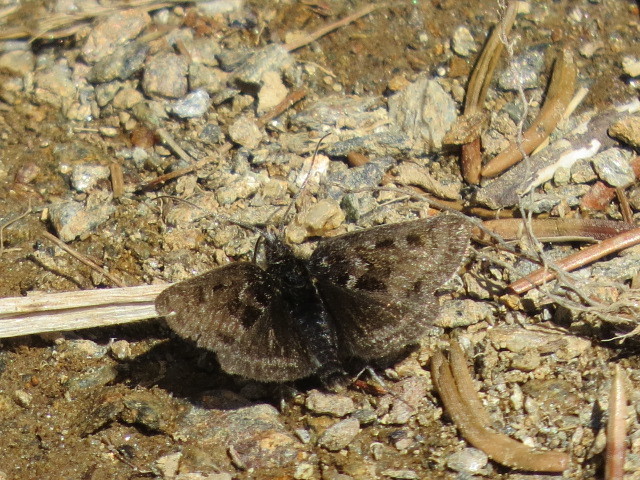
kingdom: Animalia
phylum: Arthropoda
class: Insecta
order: Lepidoptera
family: Hesperiidae
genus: Erynnis
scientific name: Erynnis tages
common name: Dingy skipper
